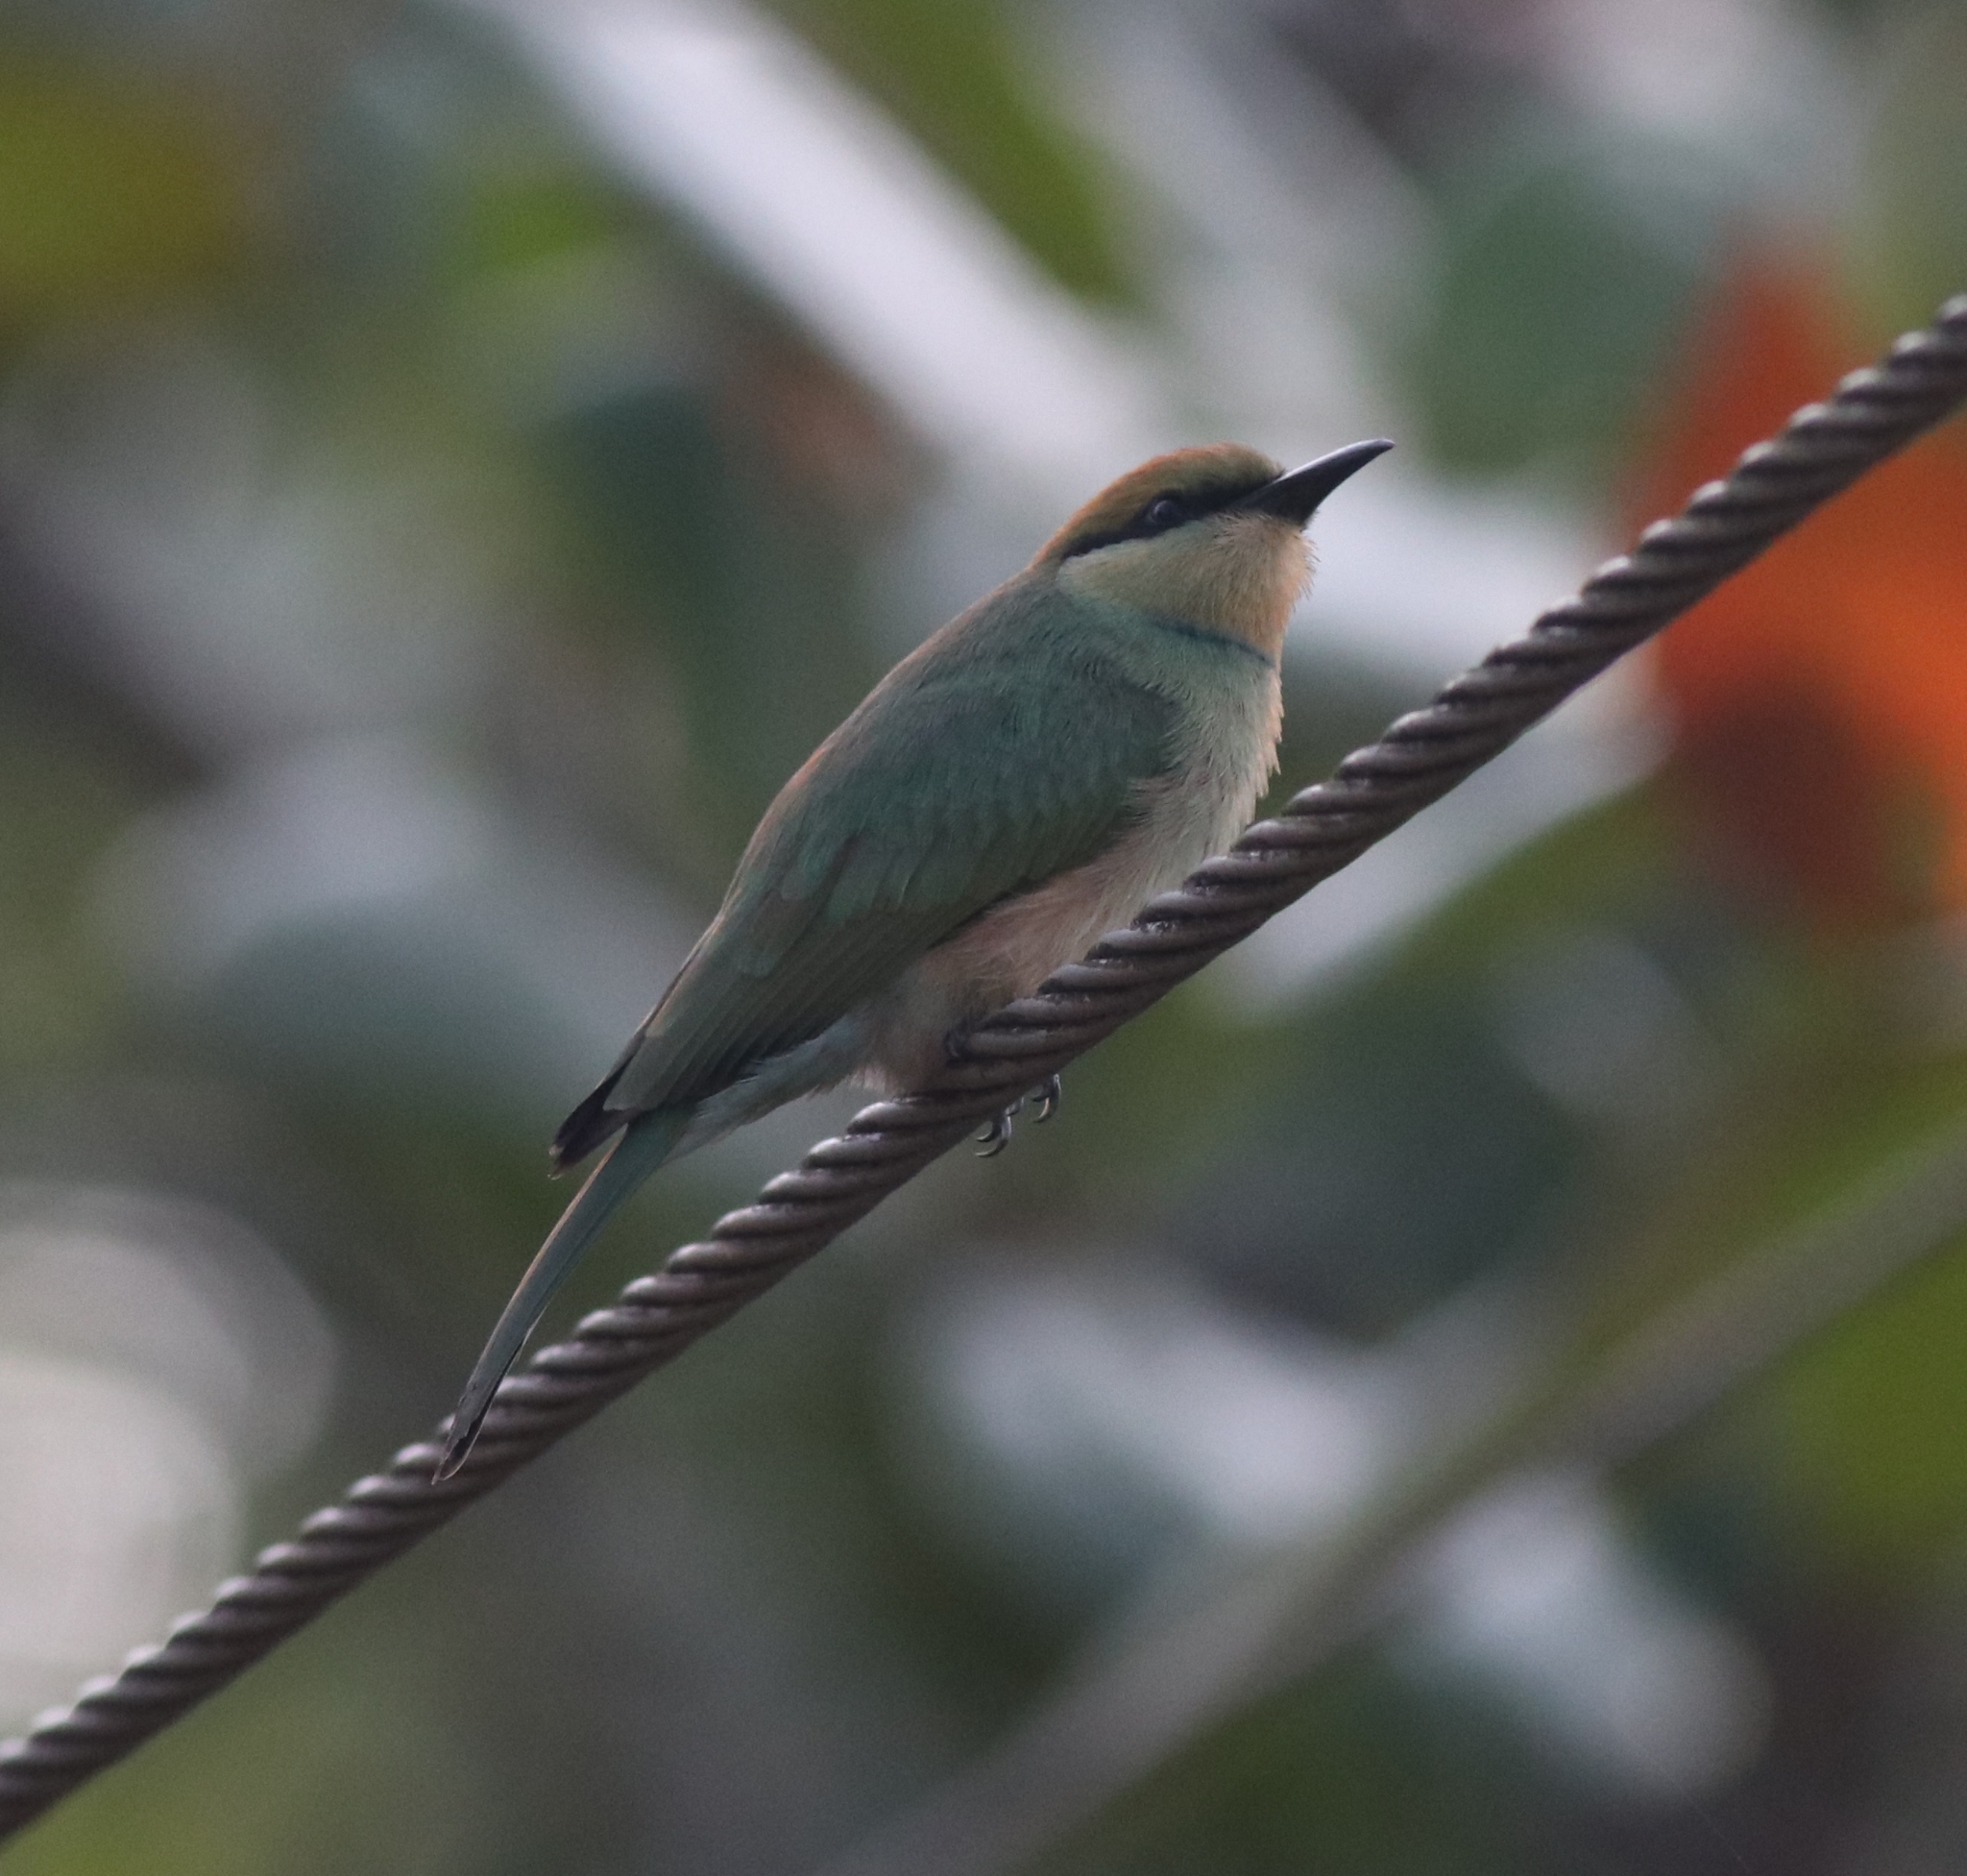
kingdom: Animalia
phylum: Chordata
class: Aves
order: Coraciiformes
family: Meropidae
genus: Merops
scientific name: Merops orientalis
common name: Green bee-eater
